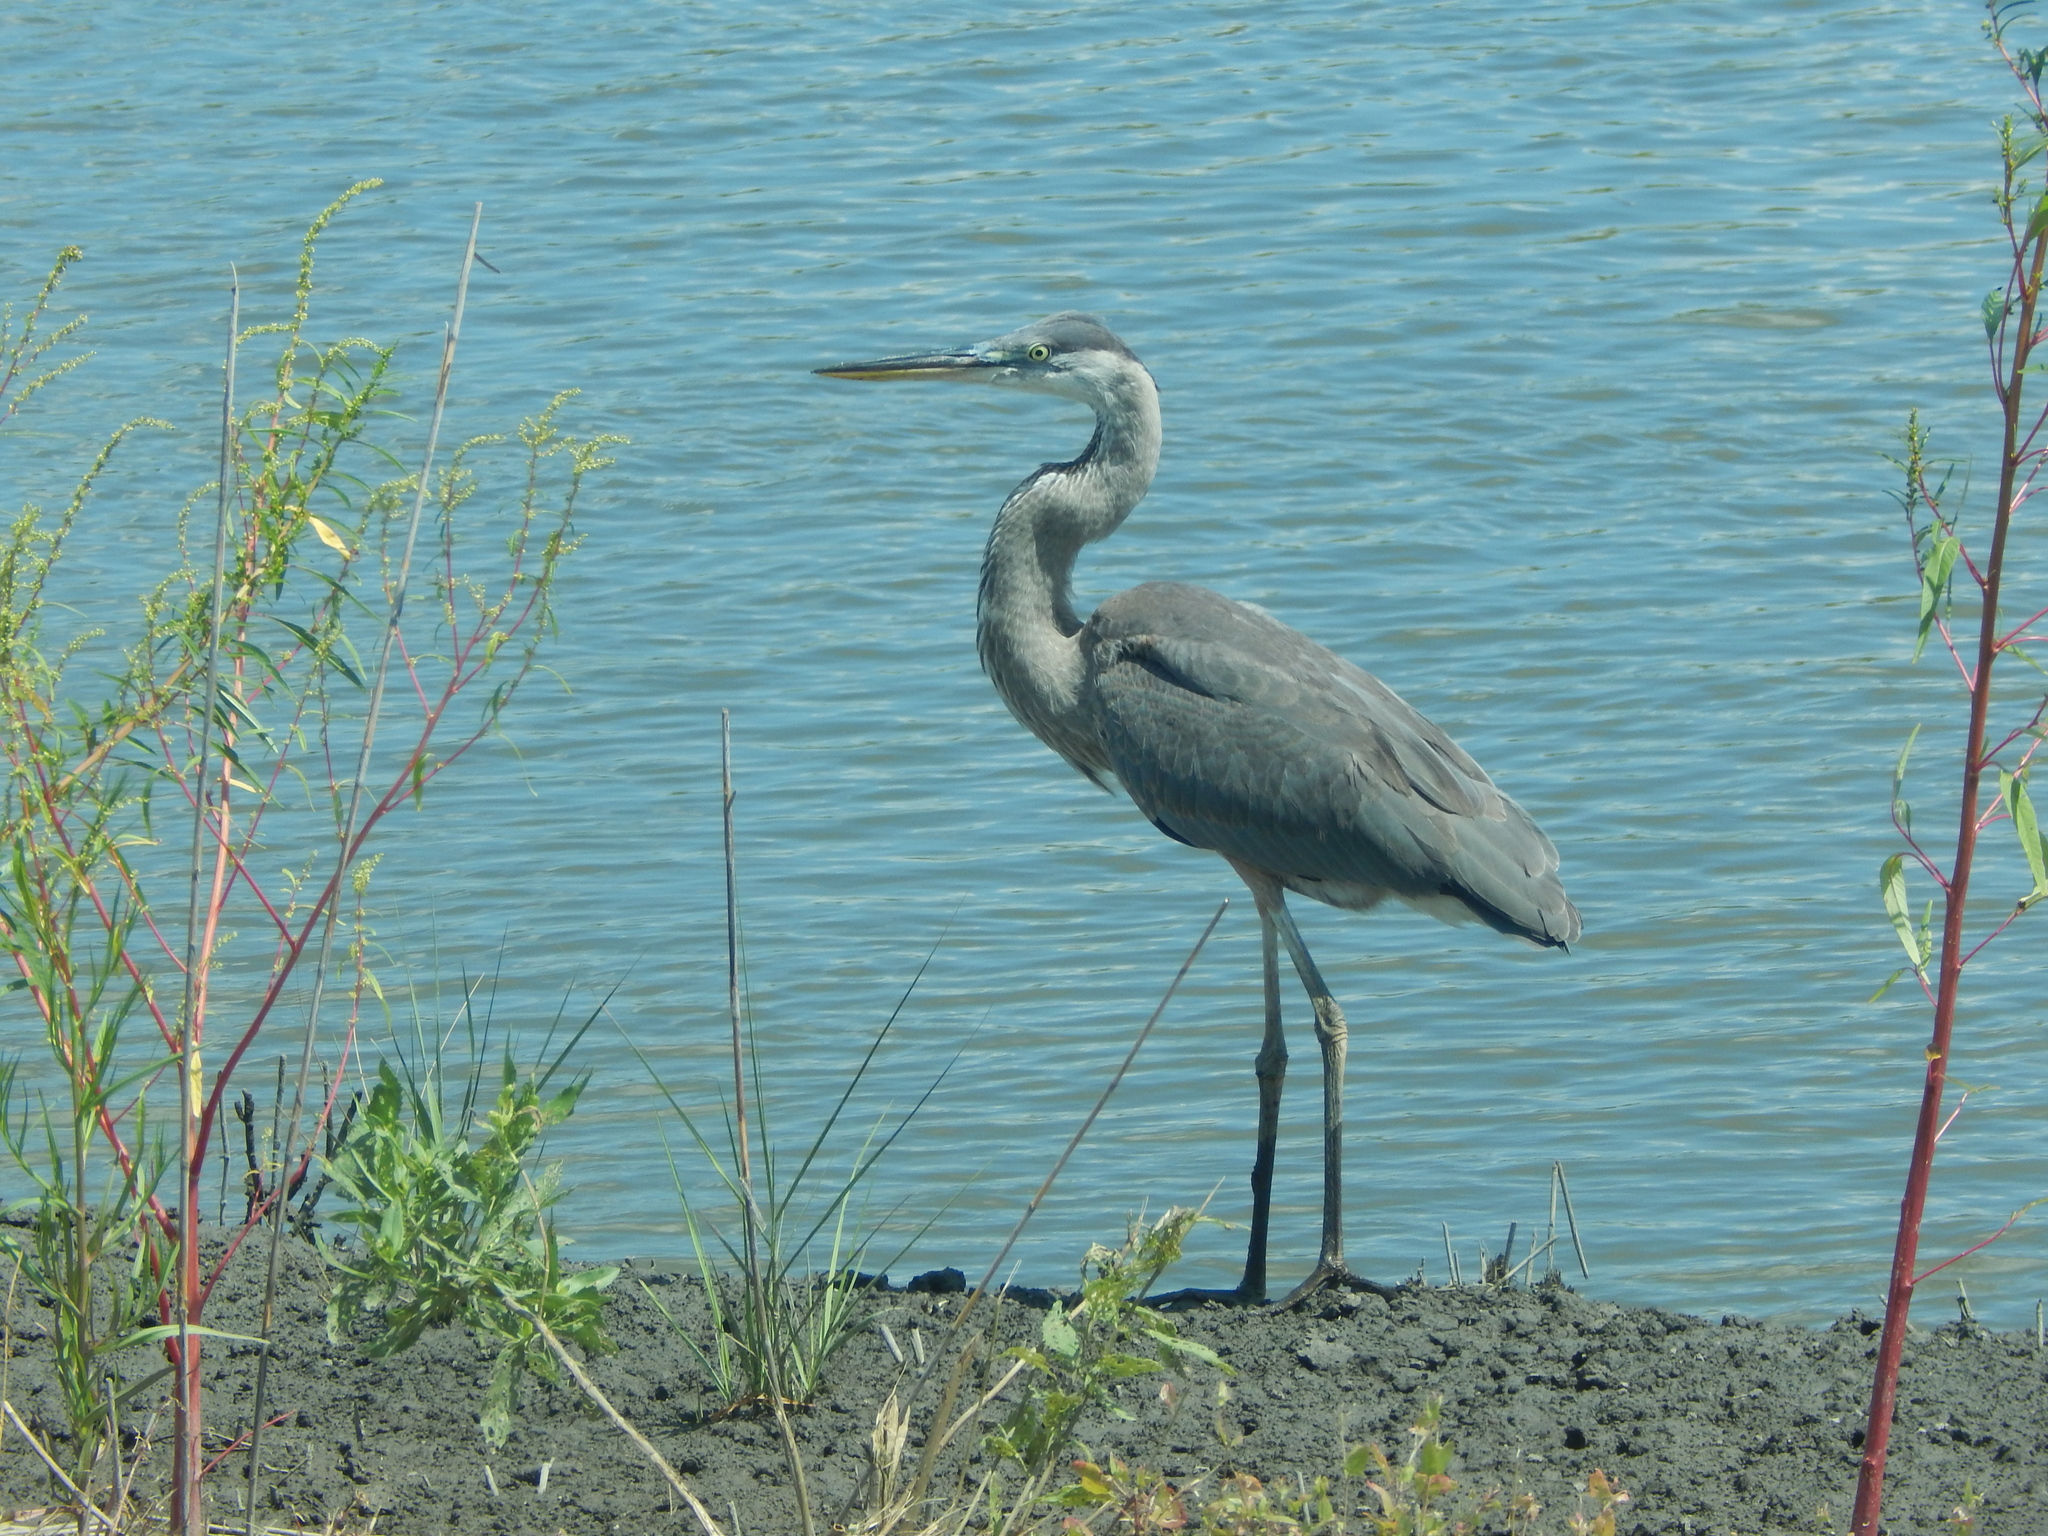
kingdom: Animalia
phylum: Chordata
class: Aves
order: Pelecaniformes
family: Ardeidae
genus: Ardea
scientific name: Ardea herodias
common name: Great blue heron
